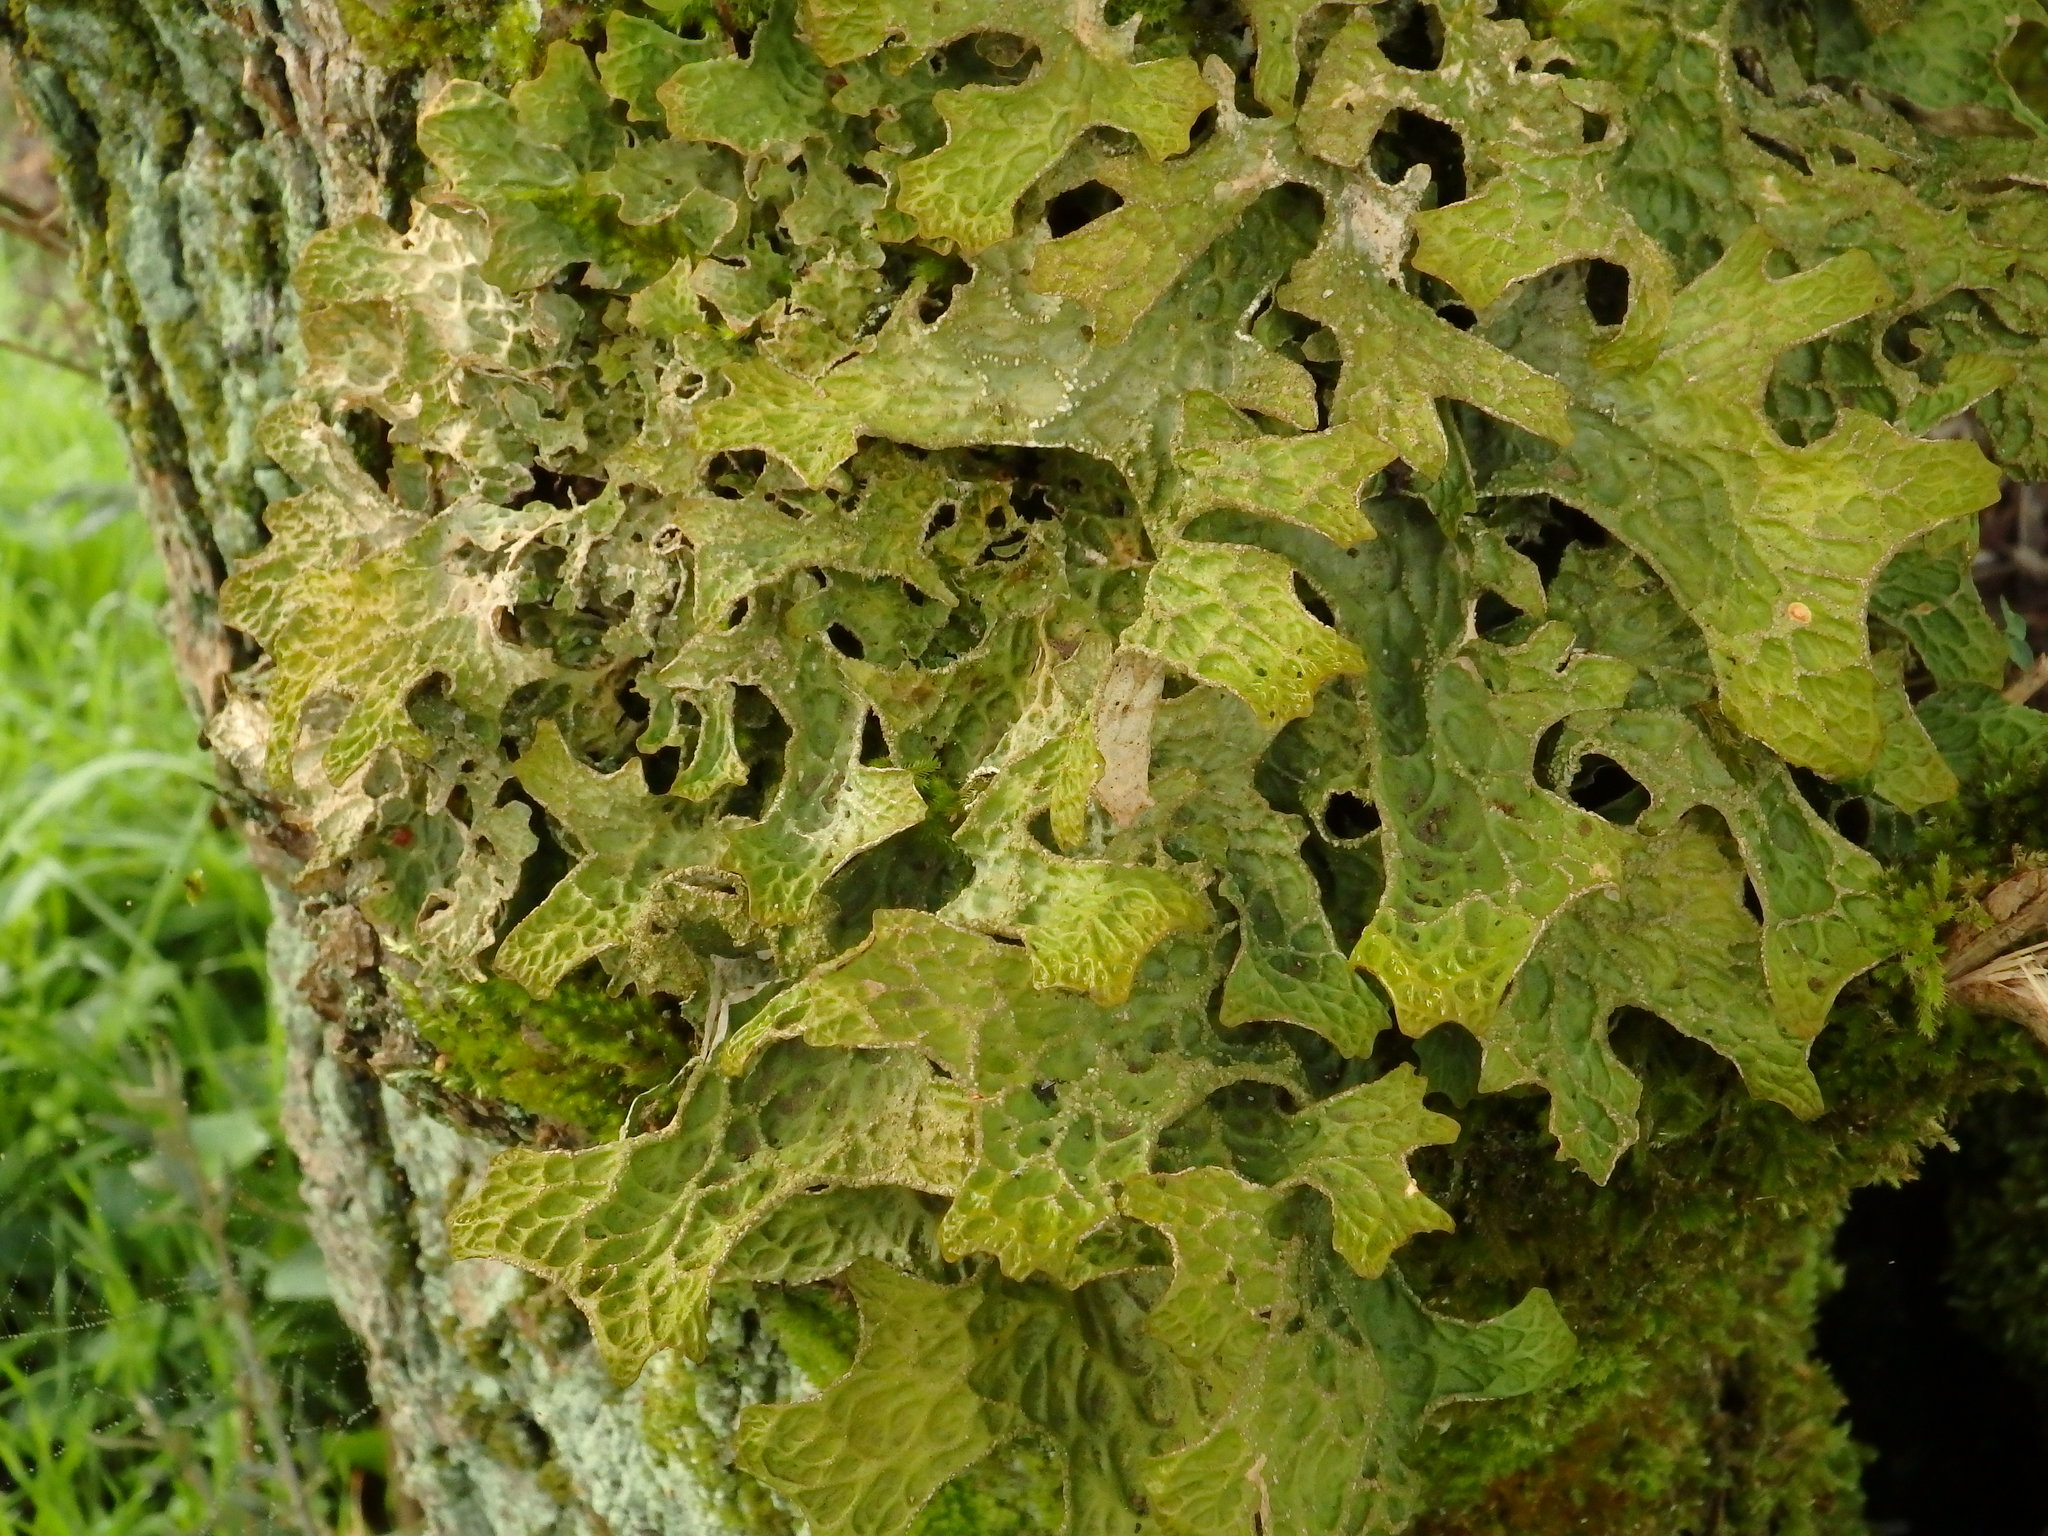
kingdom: Fungi
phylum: Ascomycota
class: Lecanoromycetes
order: Peltigerales
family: Lobariaceae
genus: Lobaria
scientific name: Lobaria pulmonaria
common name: Lungwort
